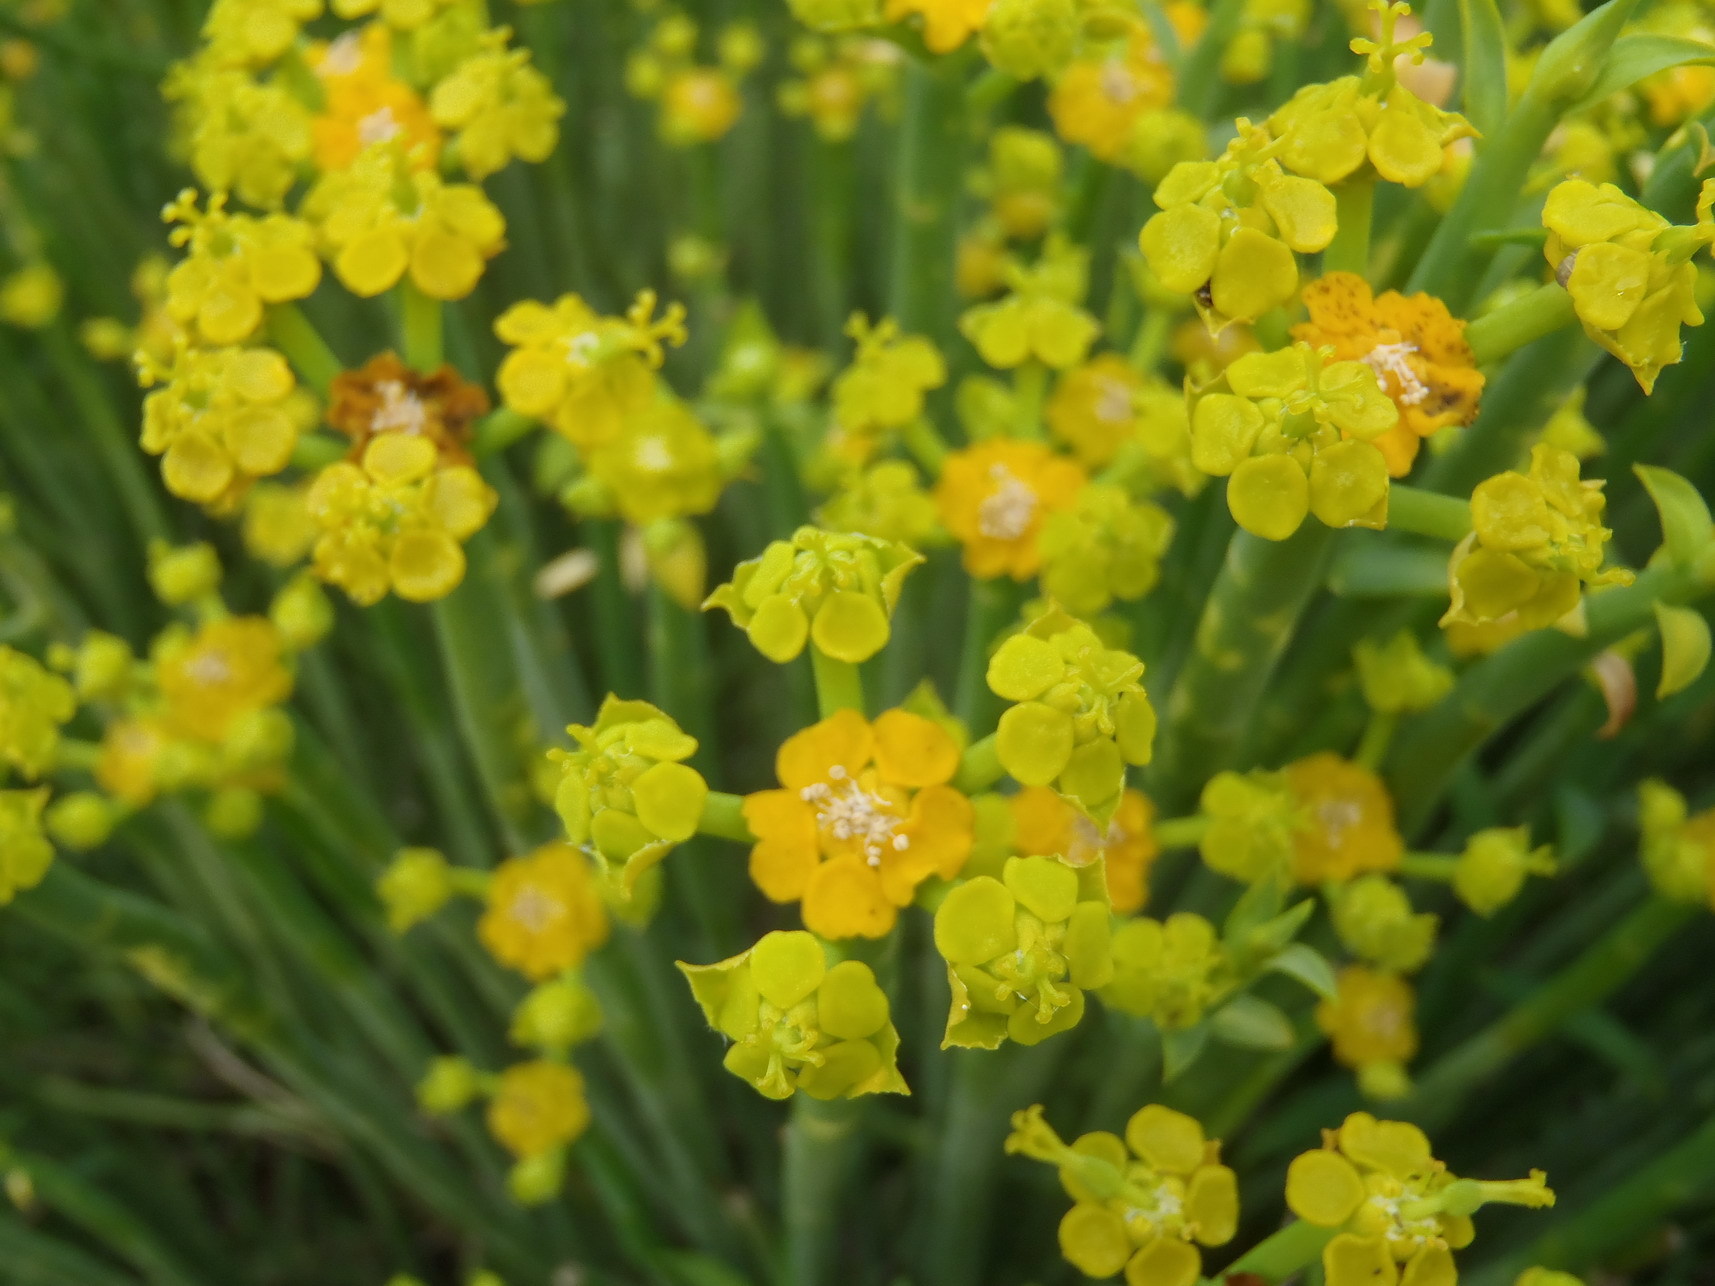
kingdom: Plantae
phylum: Tracheophyta
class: Magnoliopsida
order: Malpighiales
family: Euphorbiaceae
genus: Euphorbia
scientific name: Euphorbia mauritanica
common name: Jackal's-food
